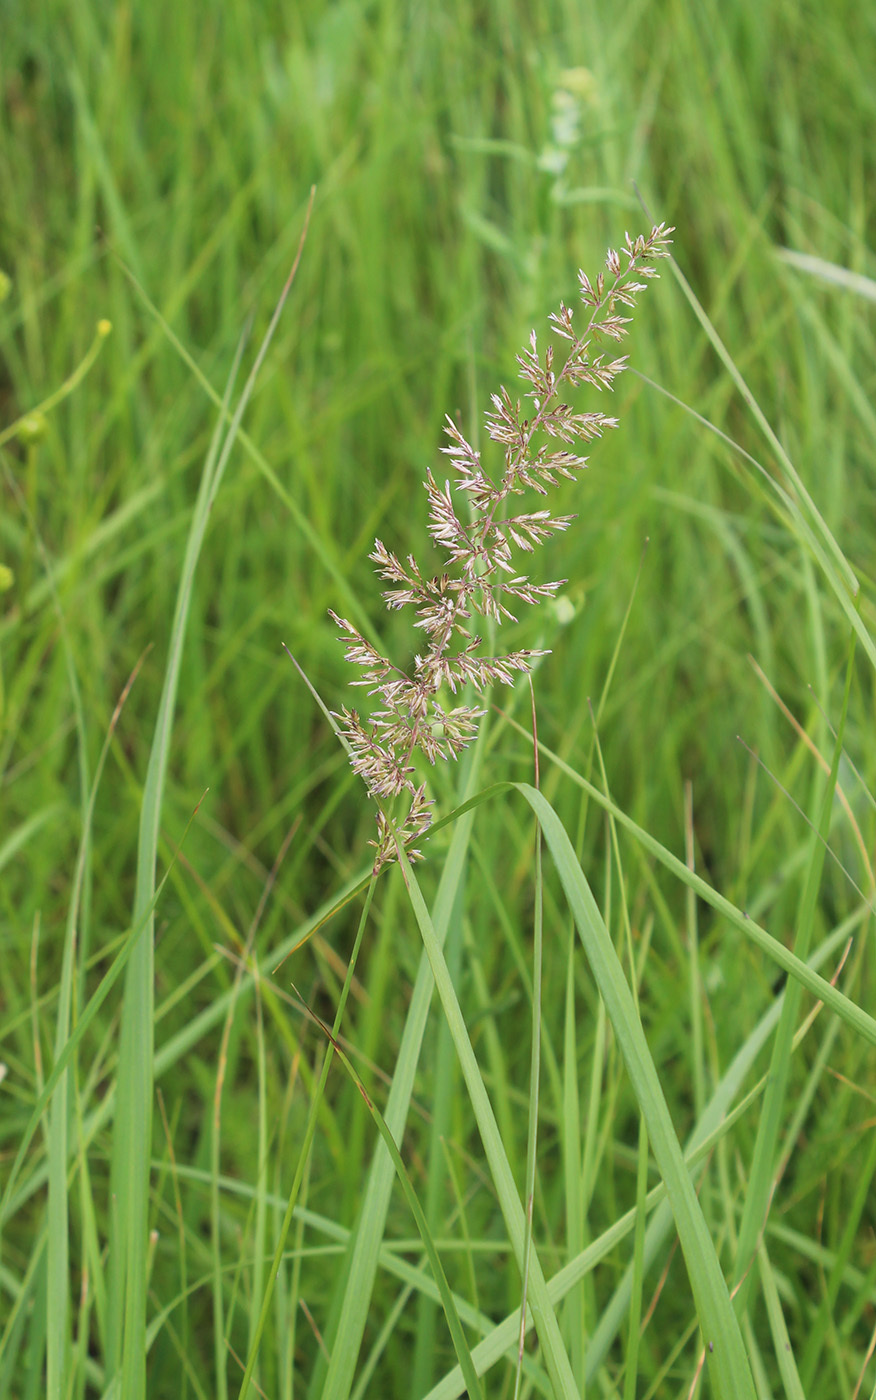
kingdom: Plantae
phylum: Tracheophyta
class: Liliopsida
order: Poales
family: Poaceae
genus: Koeleria
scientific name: Koeleria delavignei
